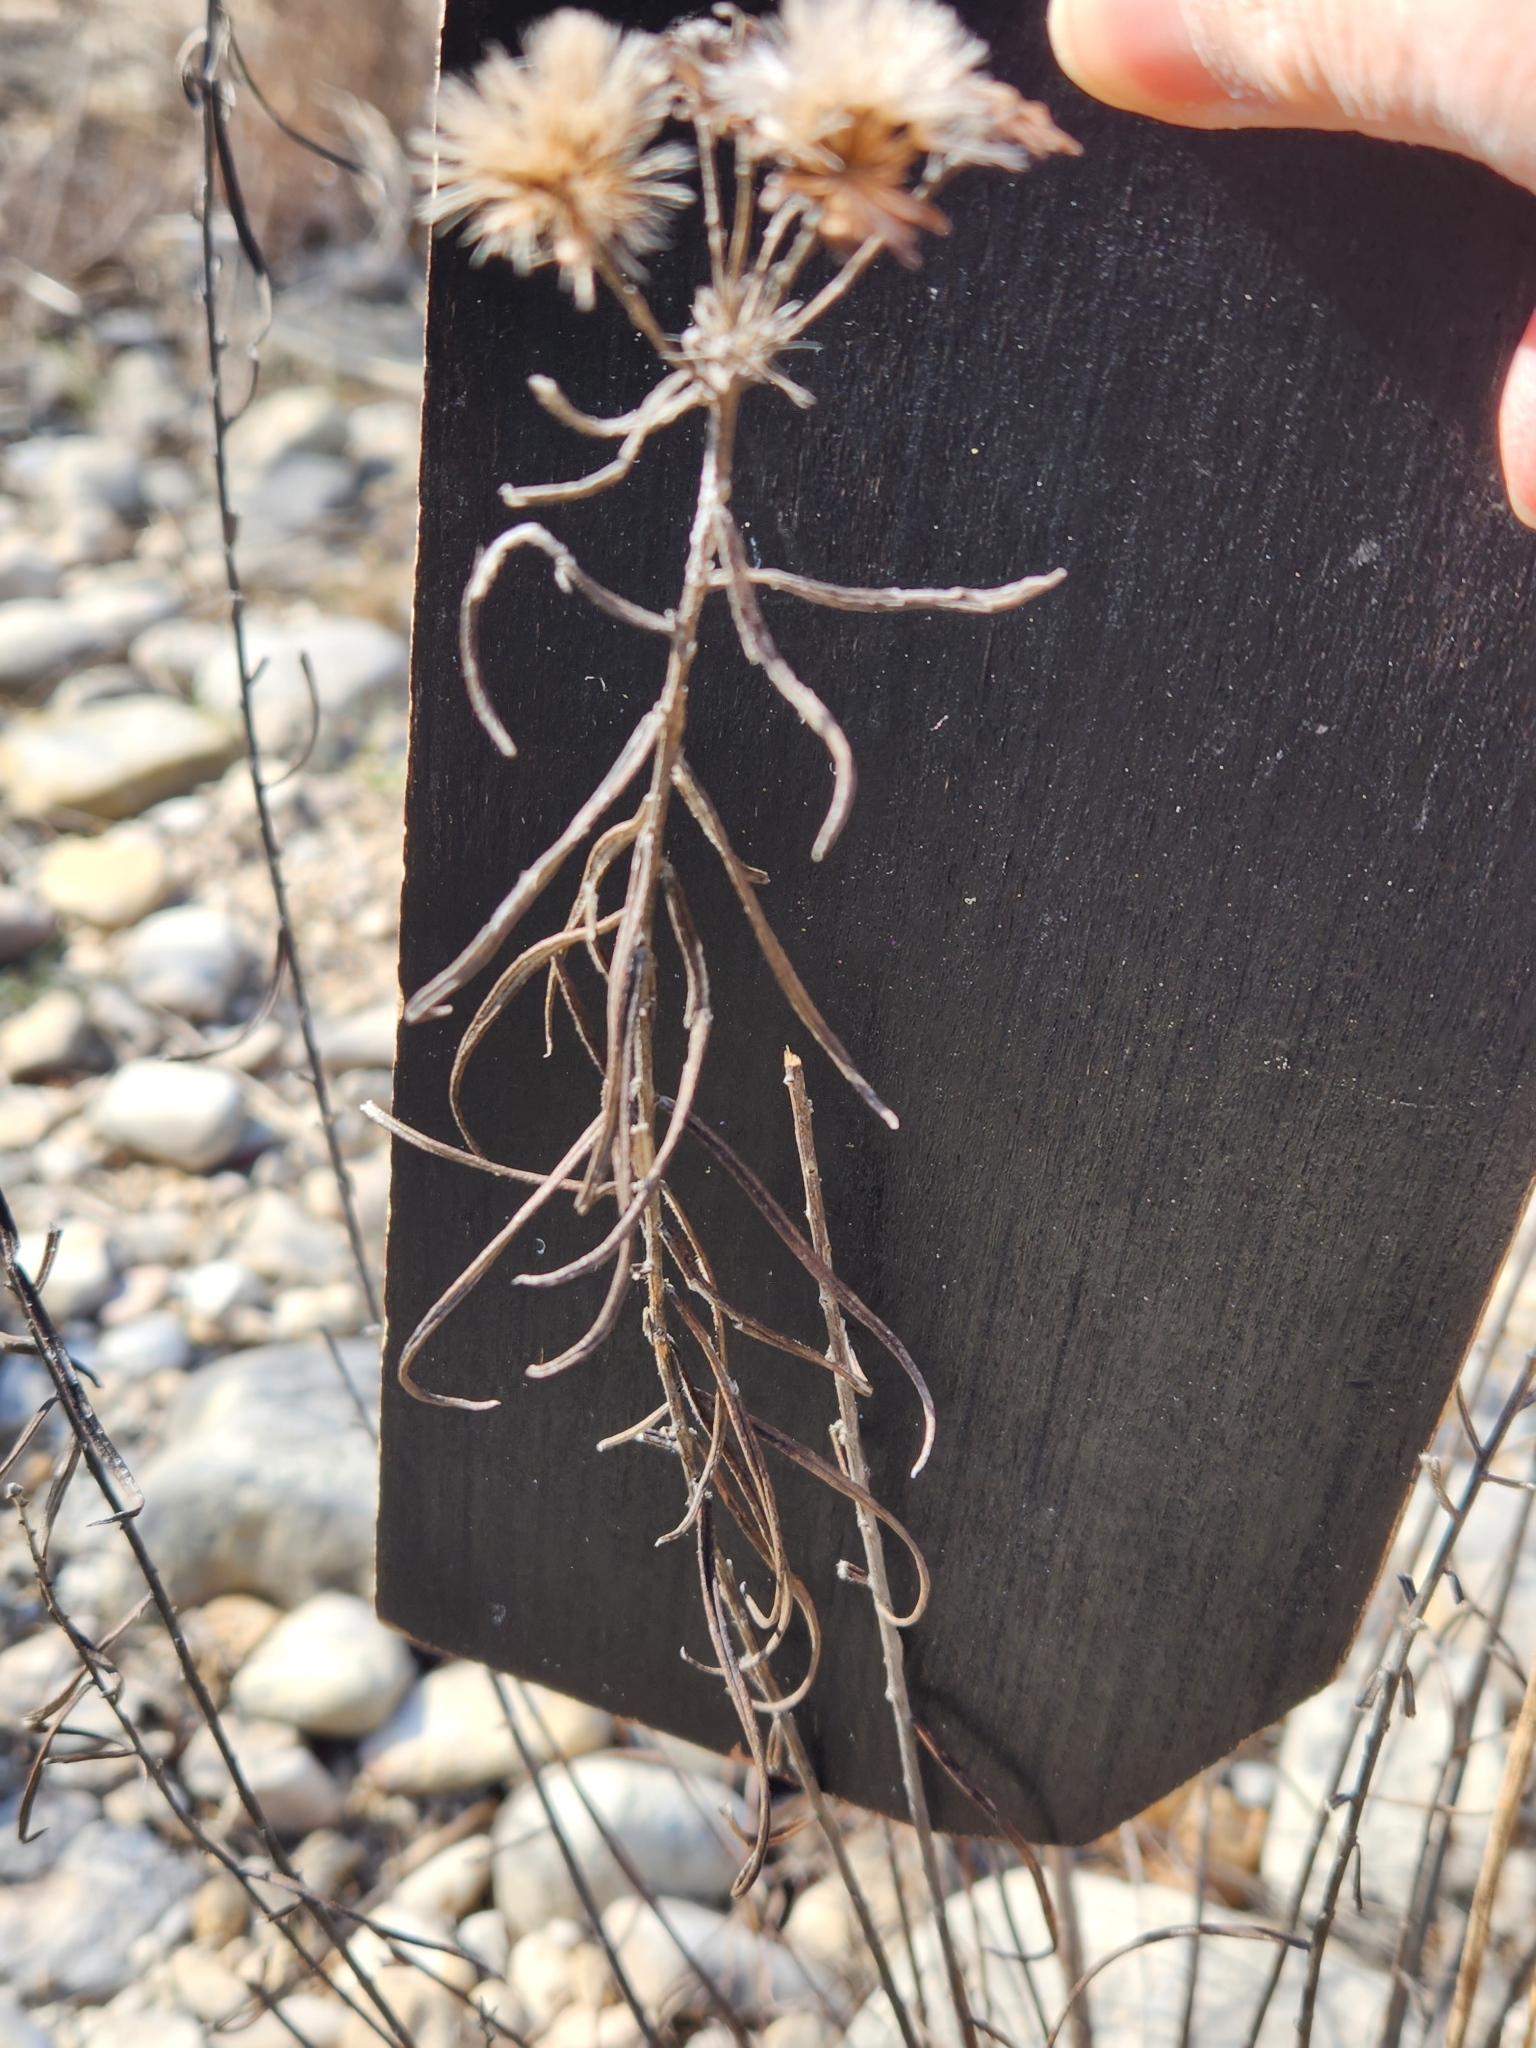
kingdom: Plantae
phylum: Tracheophyta
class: Magnoliopsida
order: Asterales
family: Asteraceae
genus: Vernonia
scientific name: Vernonia lindheimeri
